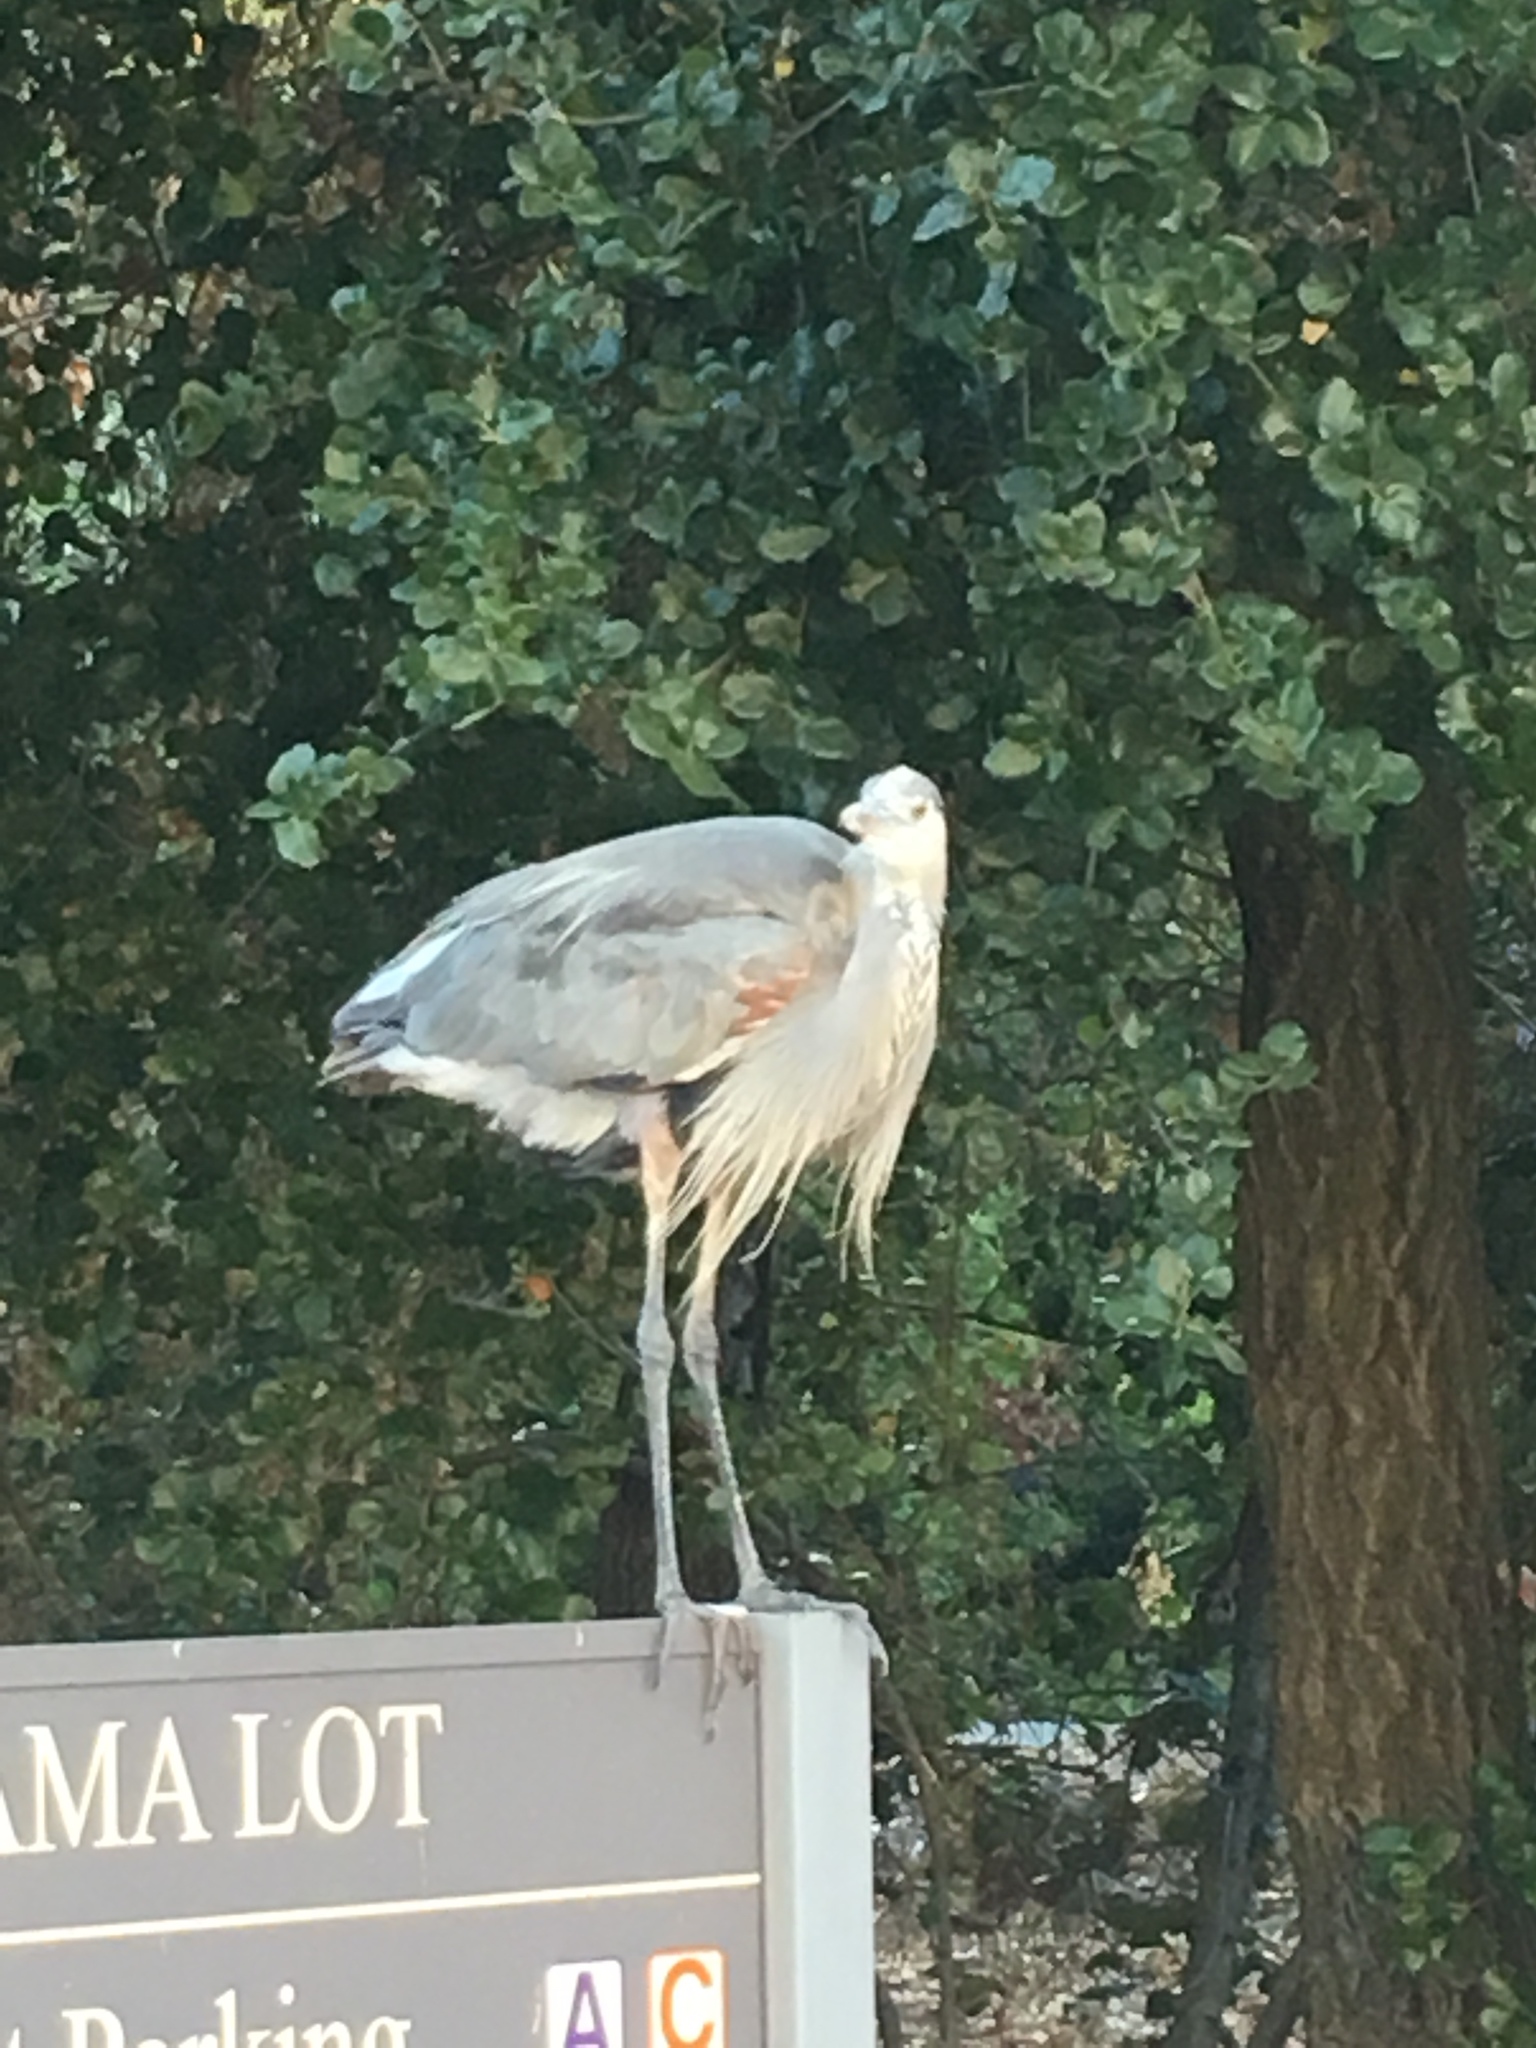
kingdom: Animalia
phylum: Chordata
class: Aves
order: Pelecaniformes
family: Ardeidae
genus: Ardea
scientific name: Ardea herodias
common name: Great blue heron
